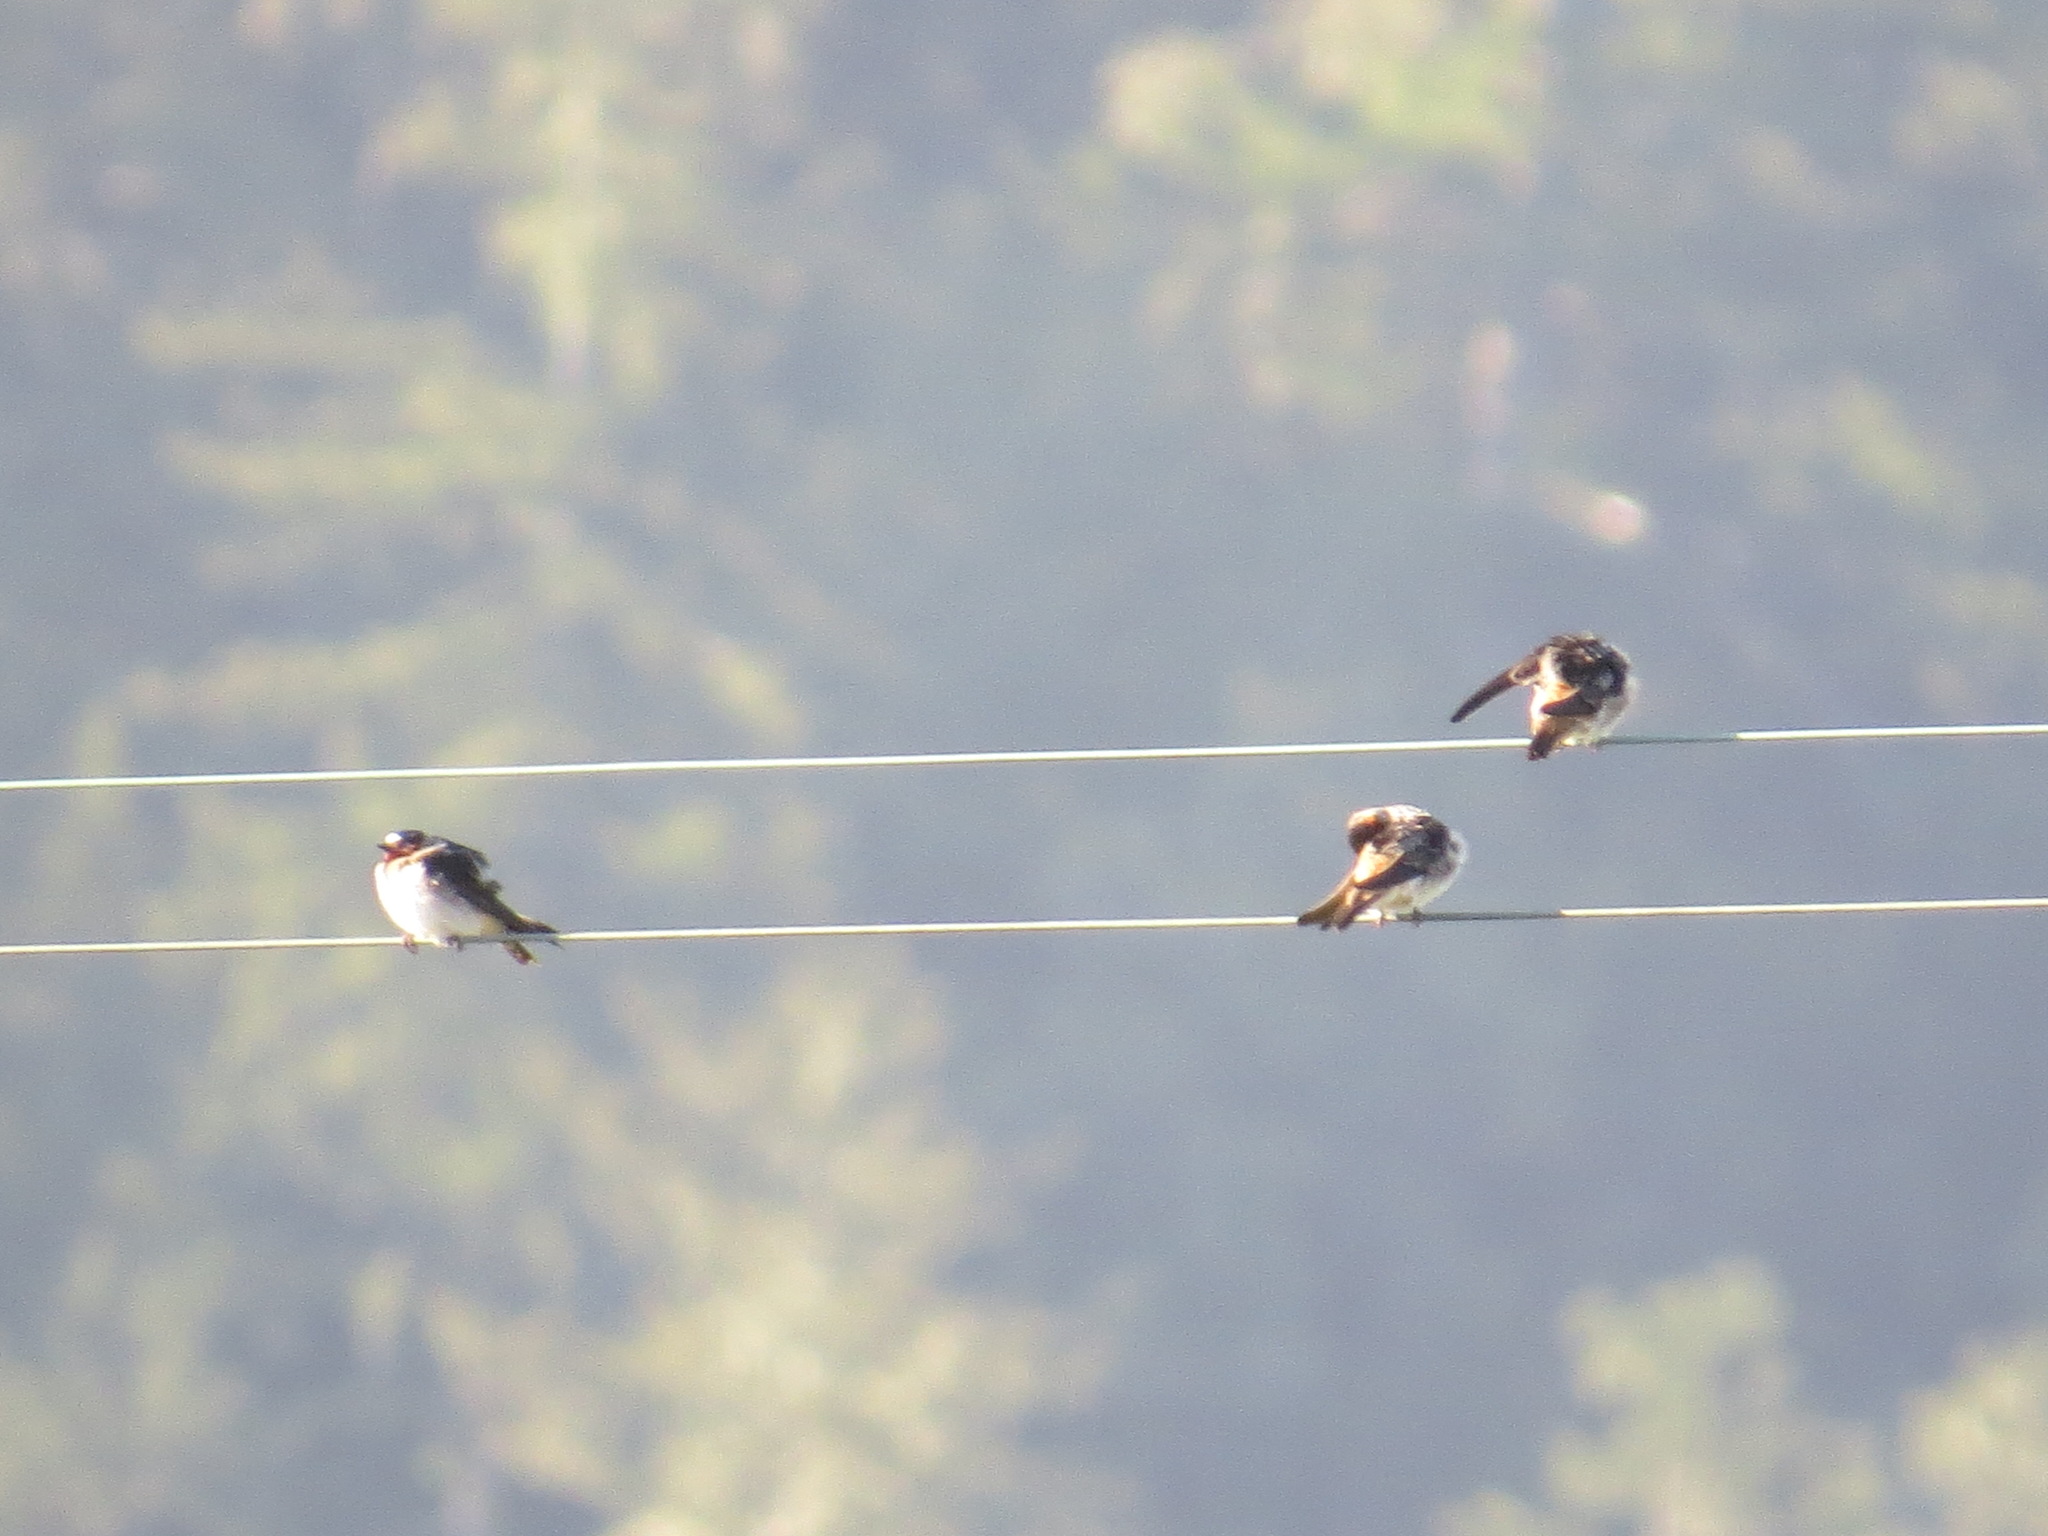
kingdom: Animalia
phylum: Chordata
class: Aves
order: Passeriformes
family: Hirundinidae
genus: Petrochelidon
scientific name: Petrochelidon pyrrhonota
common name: American cliff swallow
